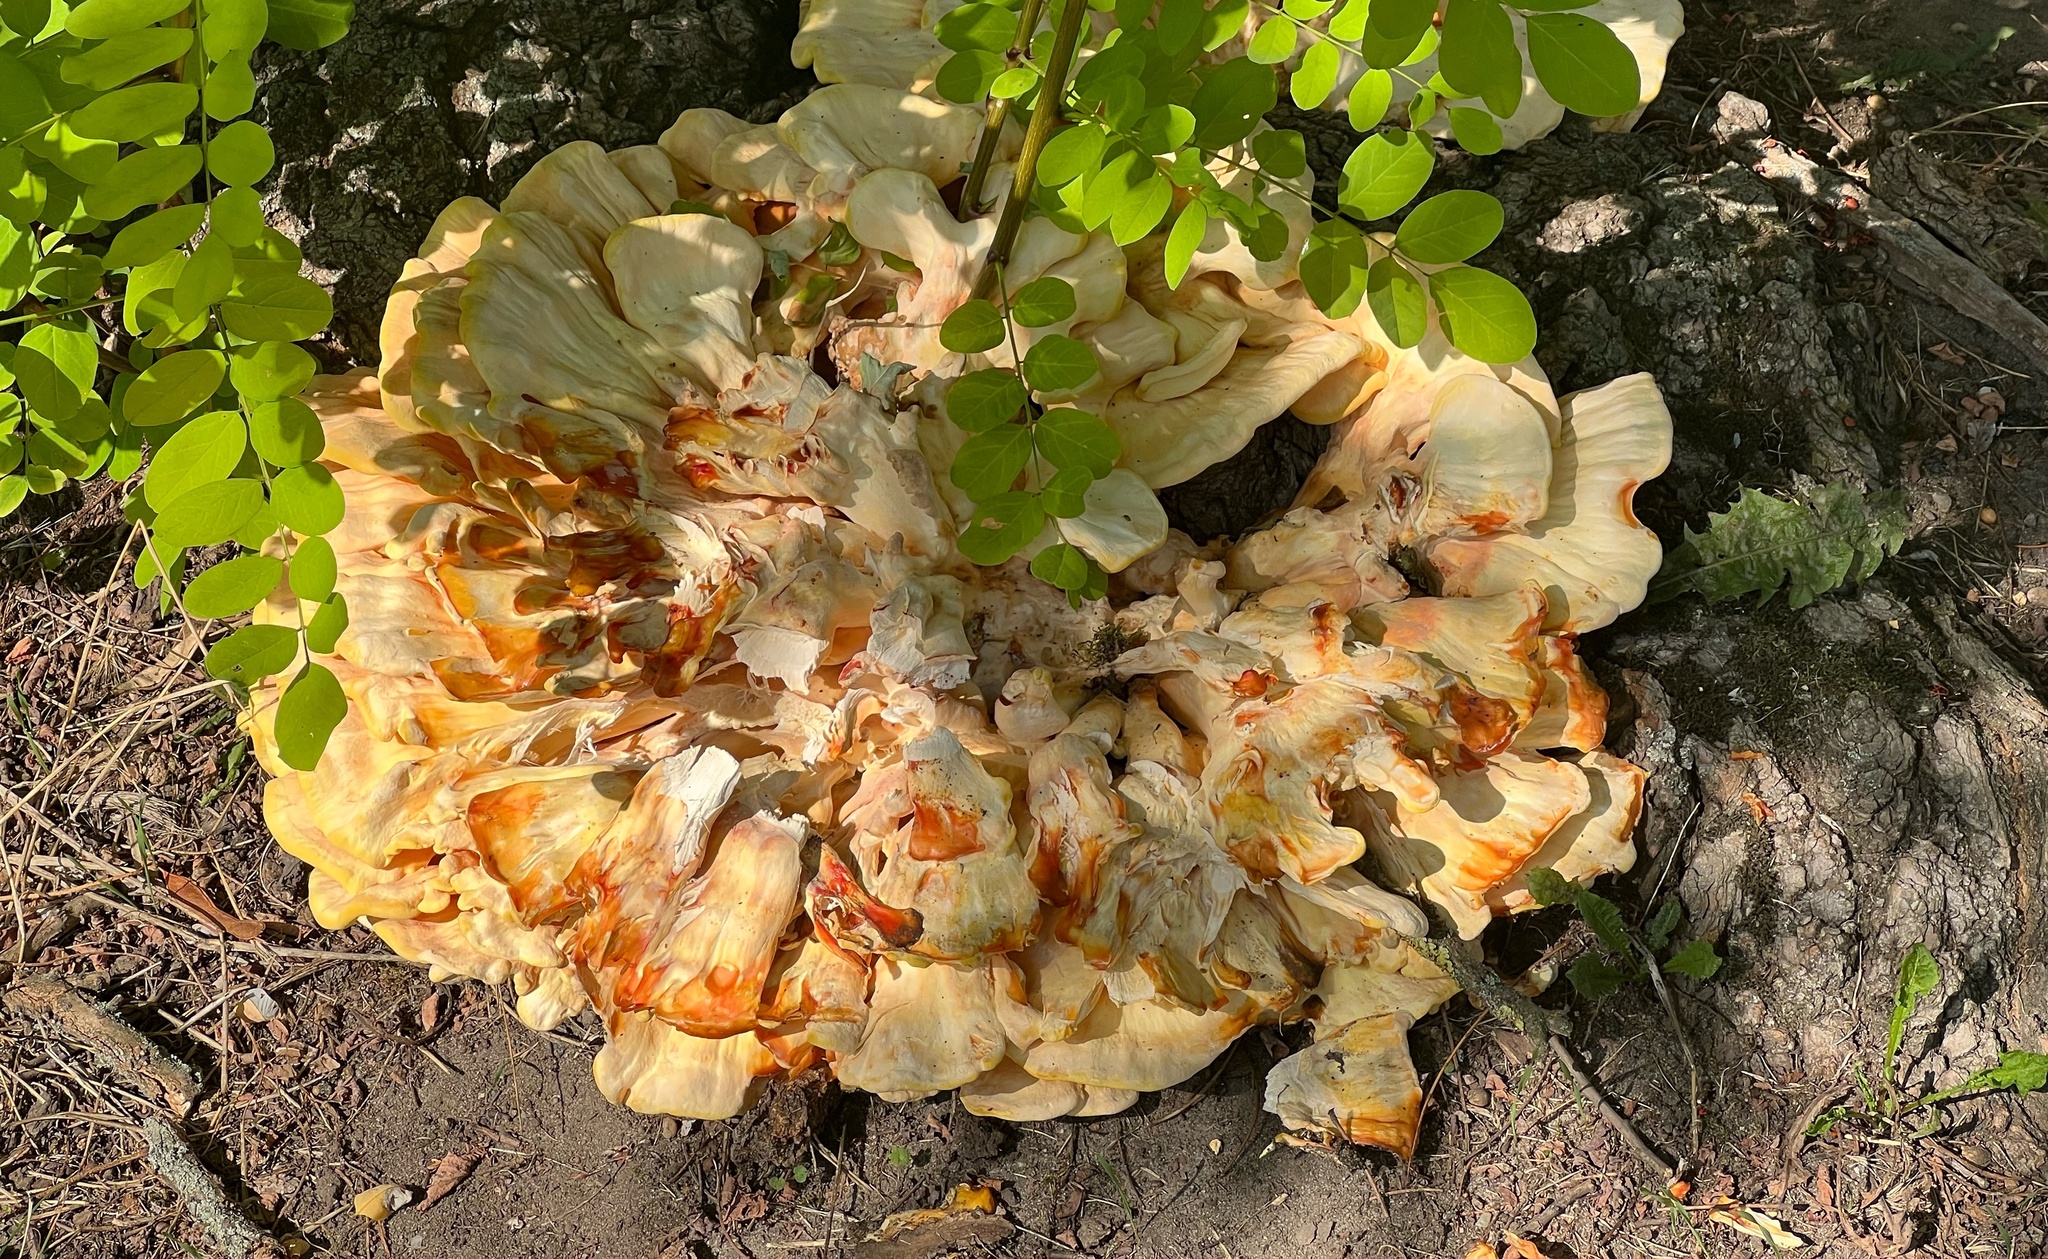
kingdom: Fungi
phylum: Basidiomycota
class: Agaricomycetes
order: Polyporales
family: Laetiporaceae
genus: Laetiporus
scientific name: Laetiporus sulphureus
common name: Chicken of the woods
